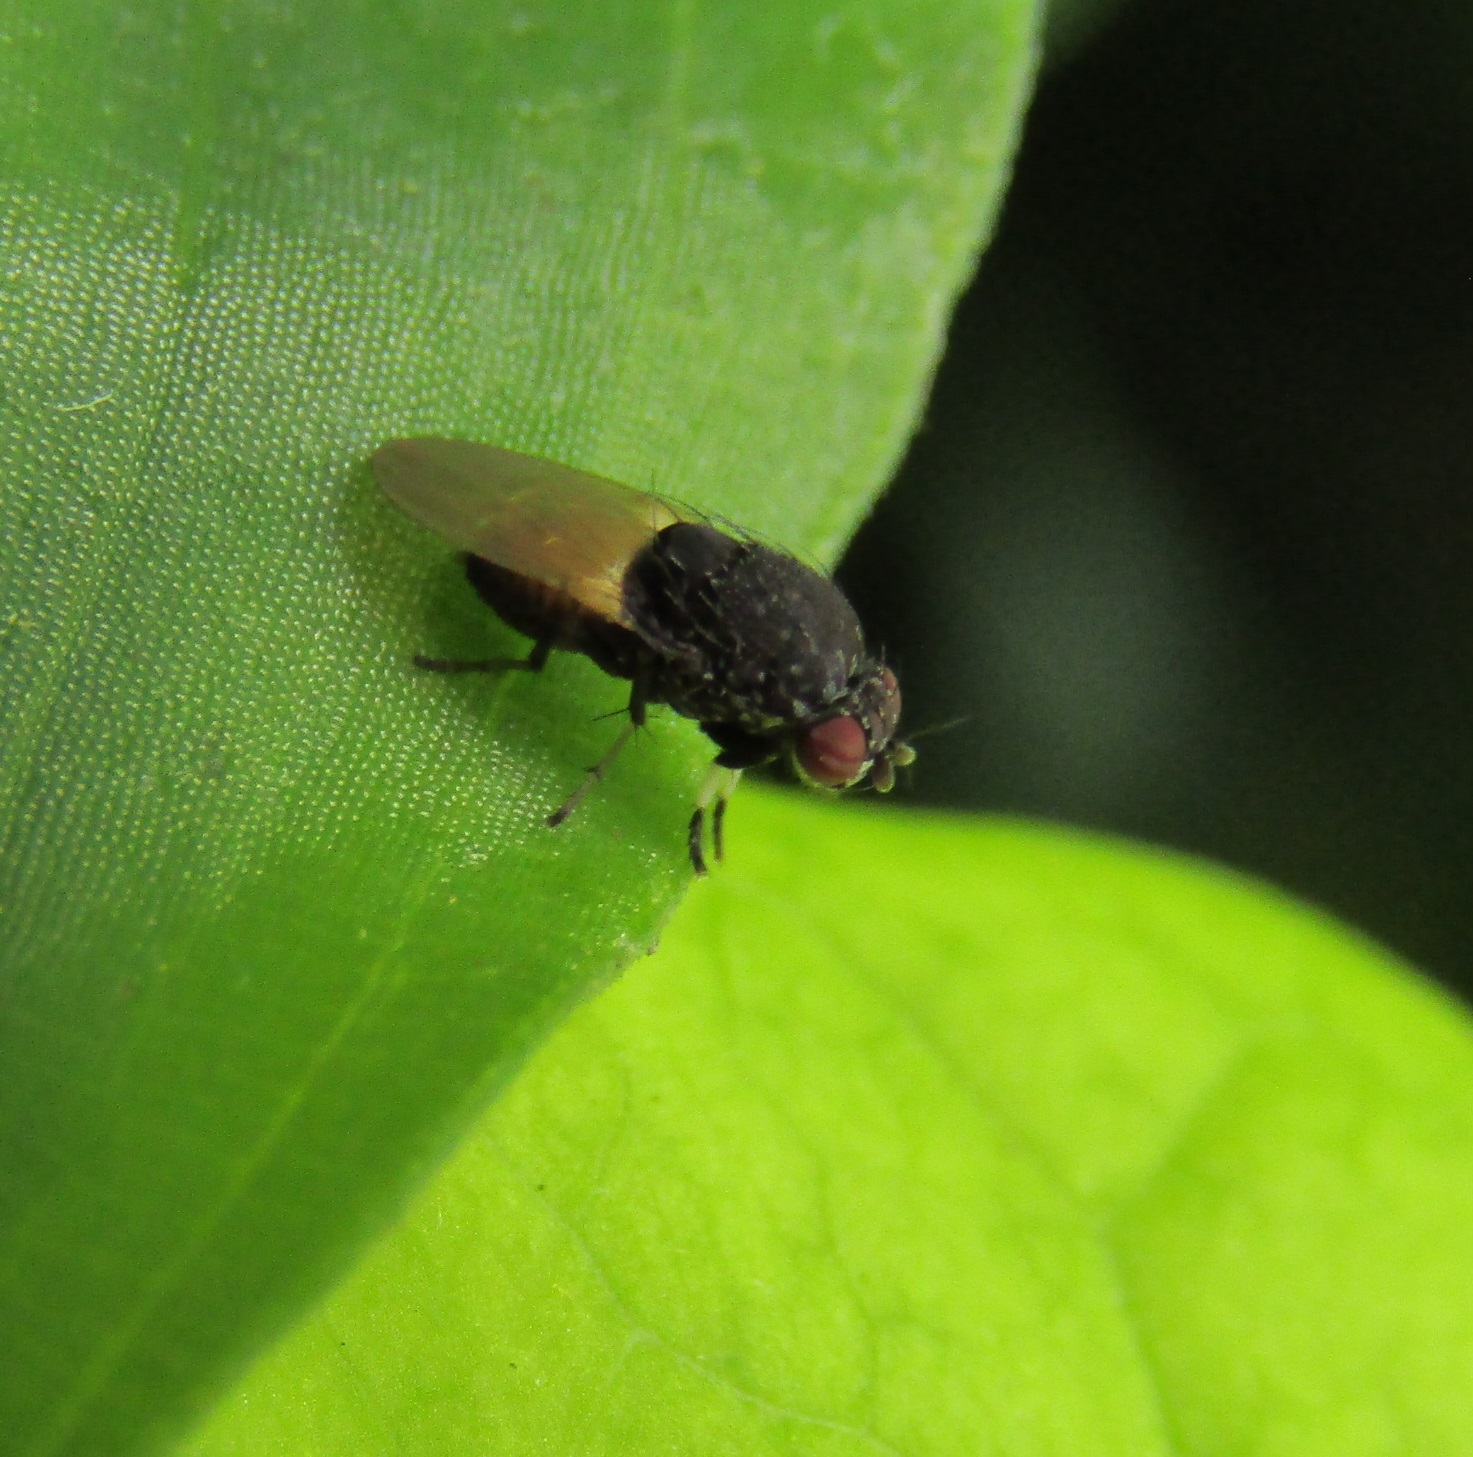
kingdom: Animalia
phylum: Arthropoda
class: Insecta
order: Diptera
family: Heleomyzidae
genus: Allophylina
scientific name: Allophylina albitarsis
